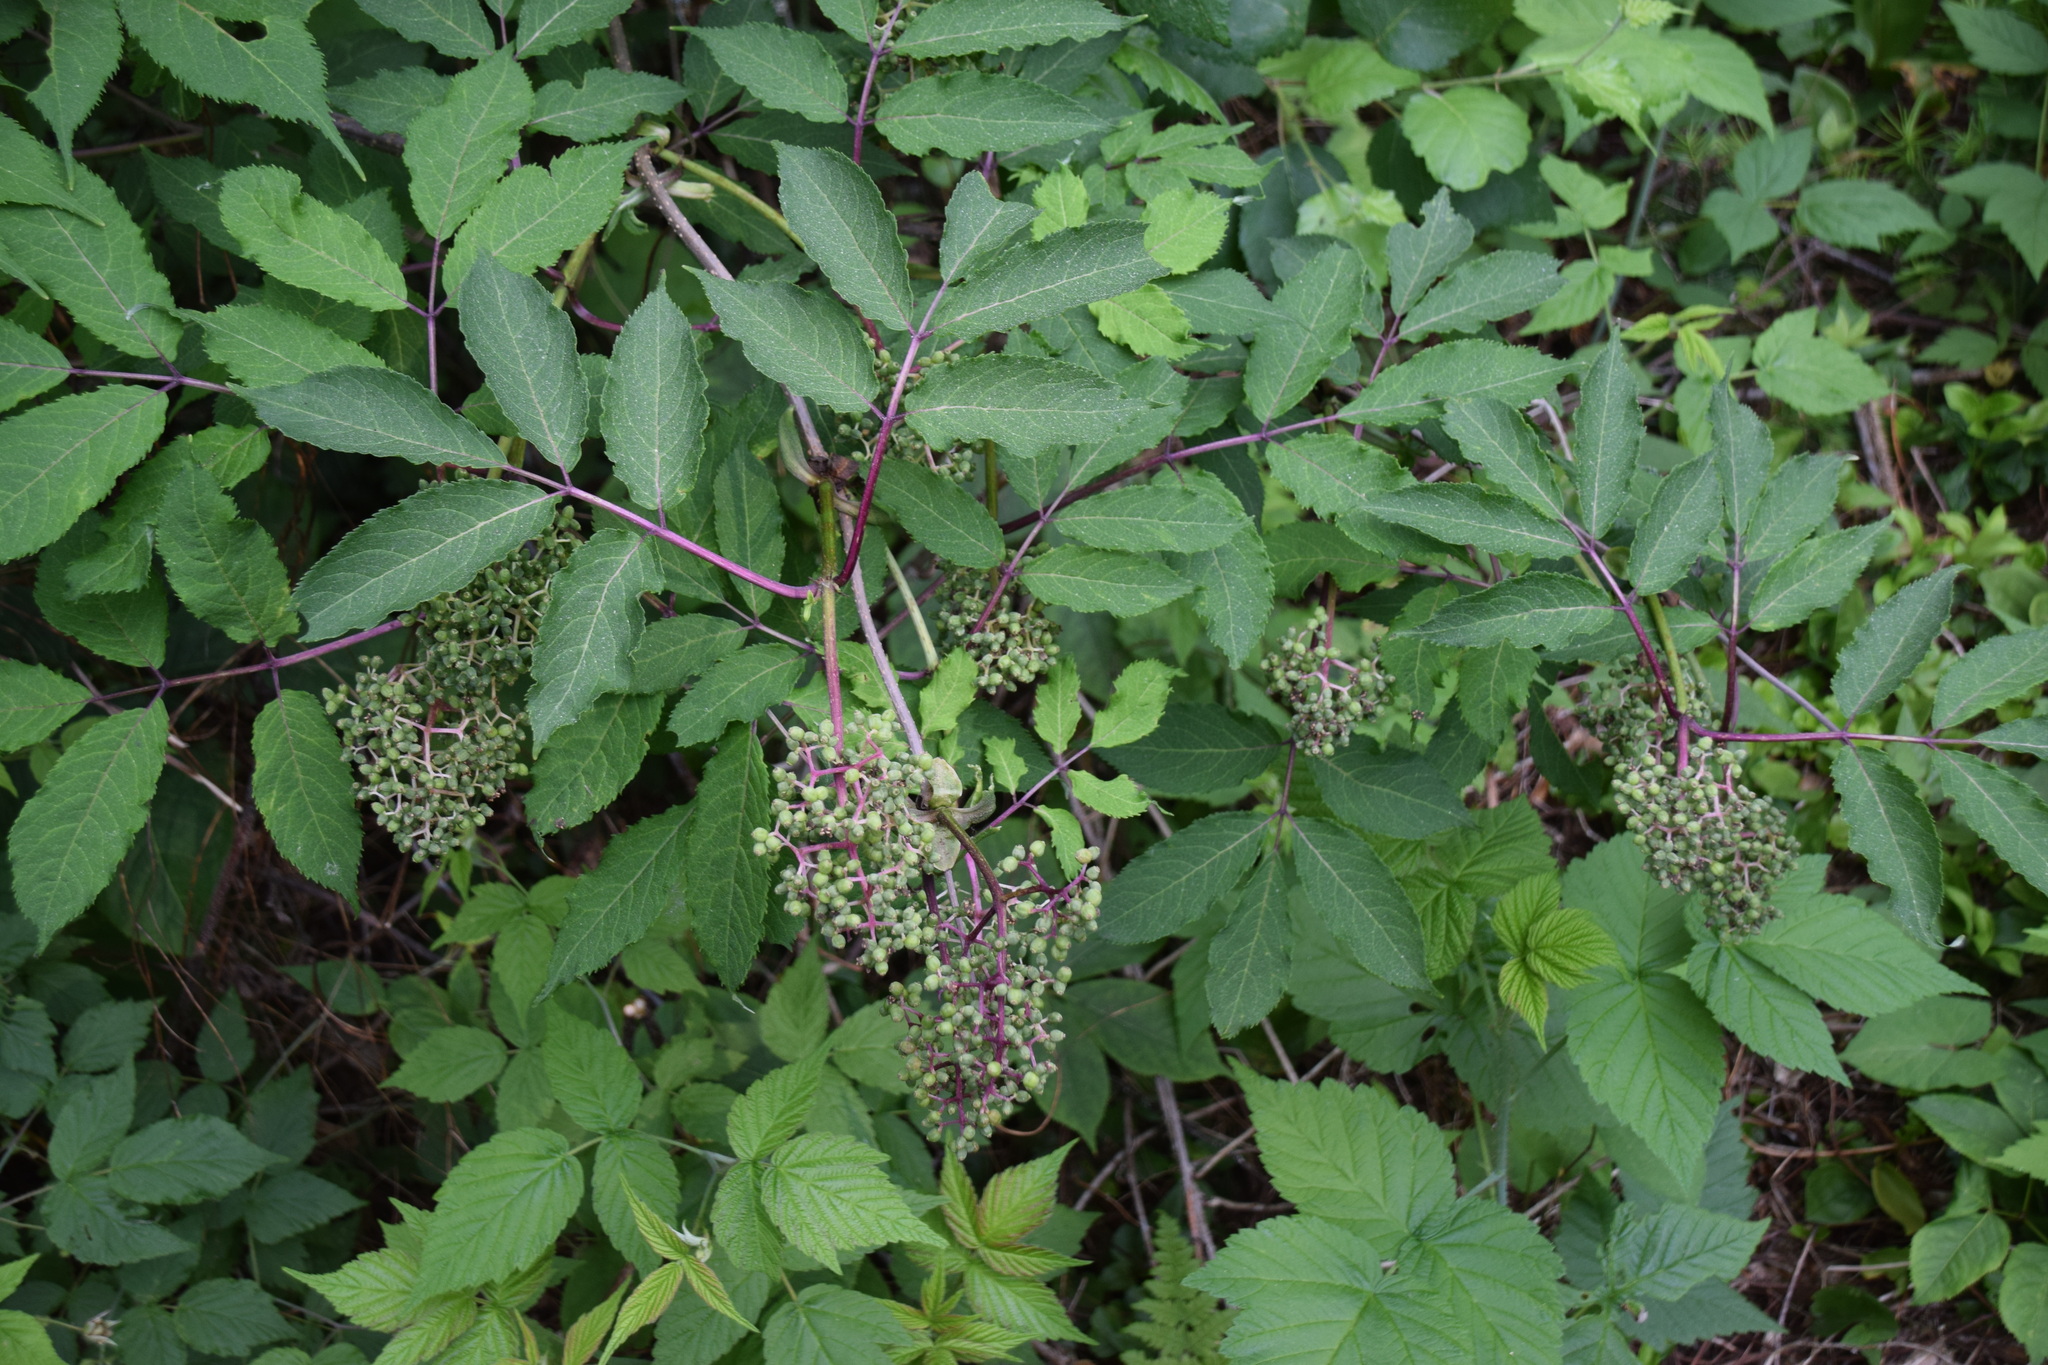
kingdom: Plantae
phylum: Tracheophyta
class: Magnoliopsida
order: Dipsacales
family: Viburnaceae
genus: Sambucus
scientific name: Sambucus racemosa
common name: Red-berried elder
